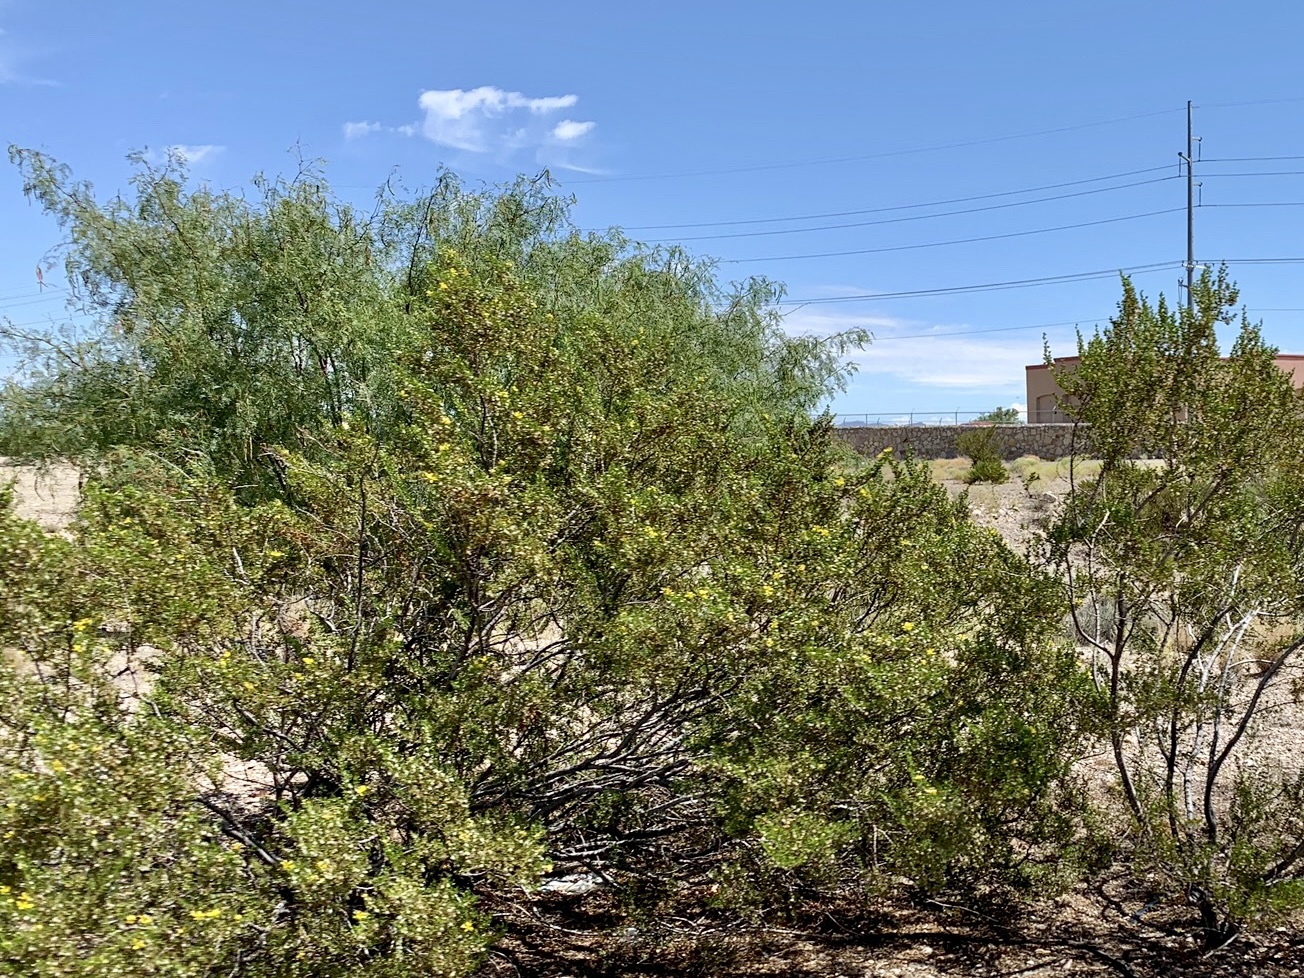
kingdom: Plantae
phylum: Tracheophyta
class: Magnoliopsida
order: Zygophyllales
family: Zygophyllaceae
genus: Larrea
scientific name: Larrea tridentata
